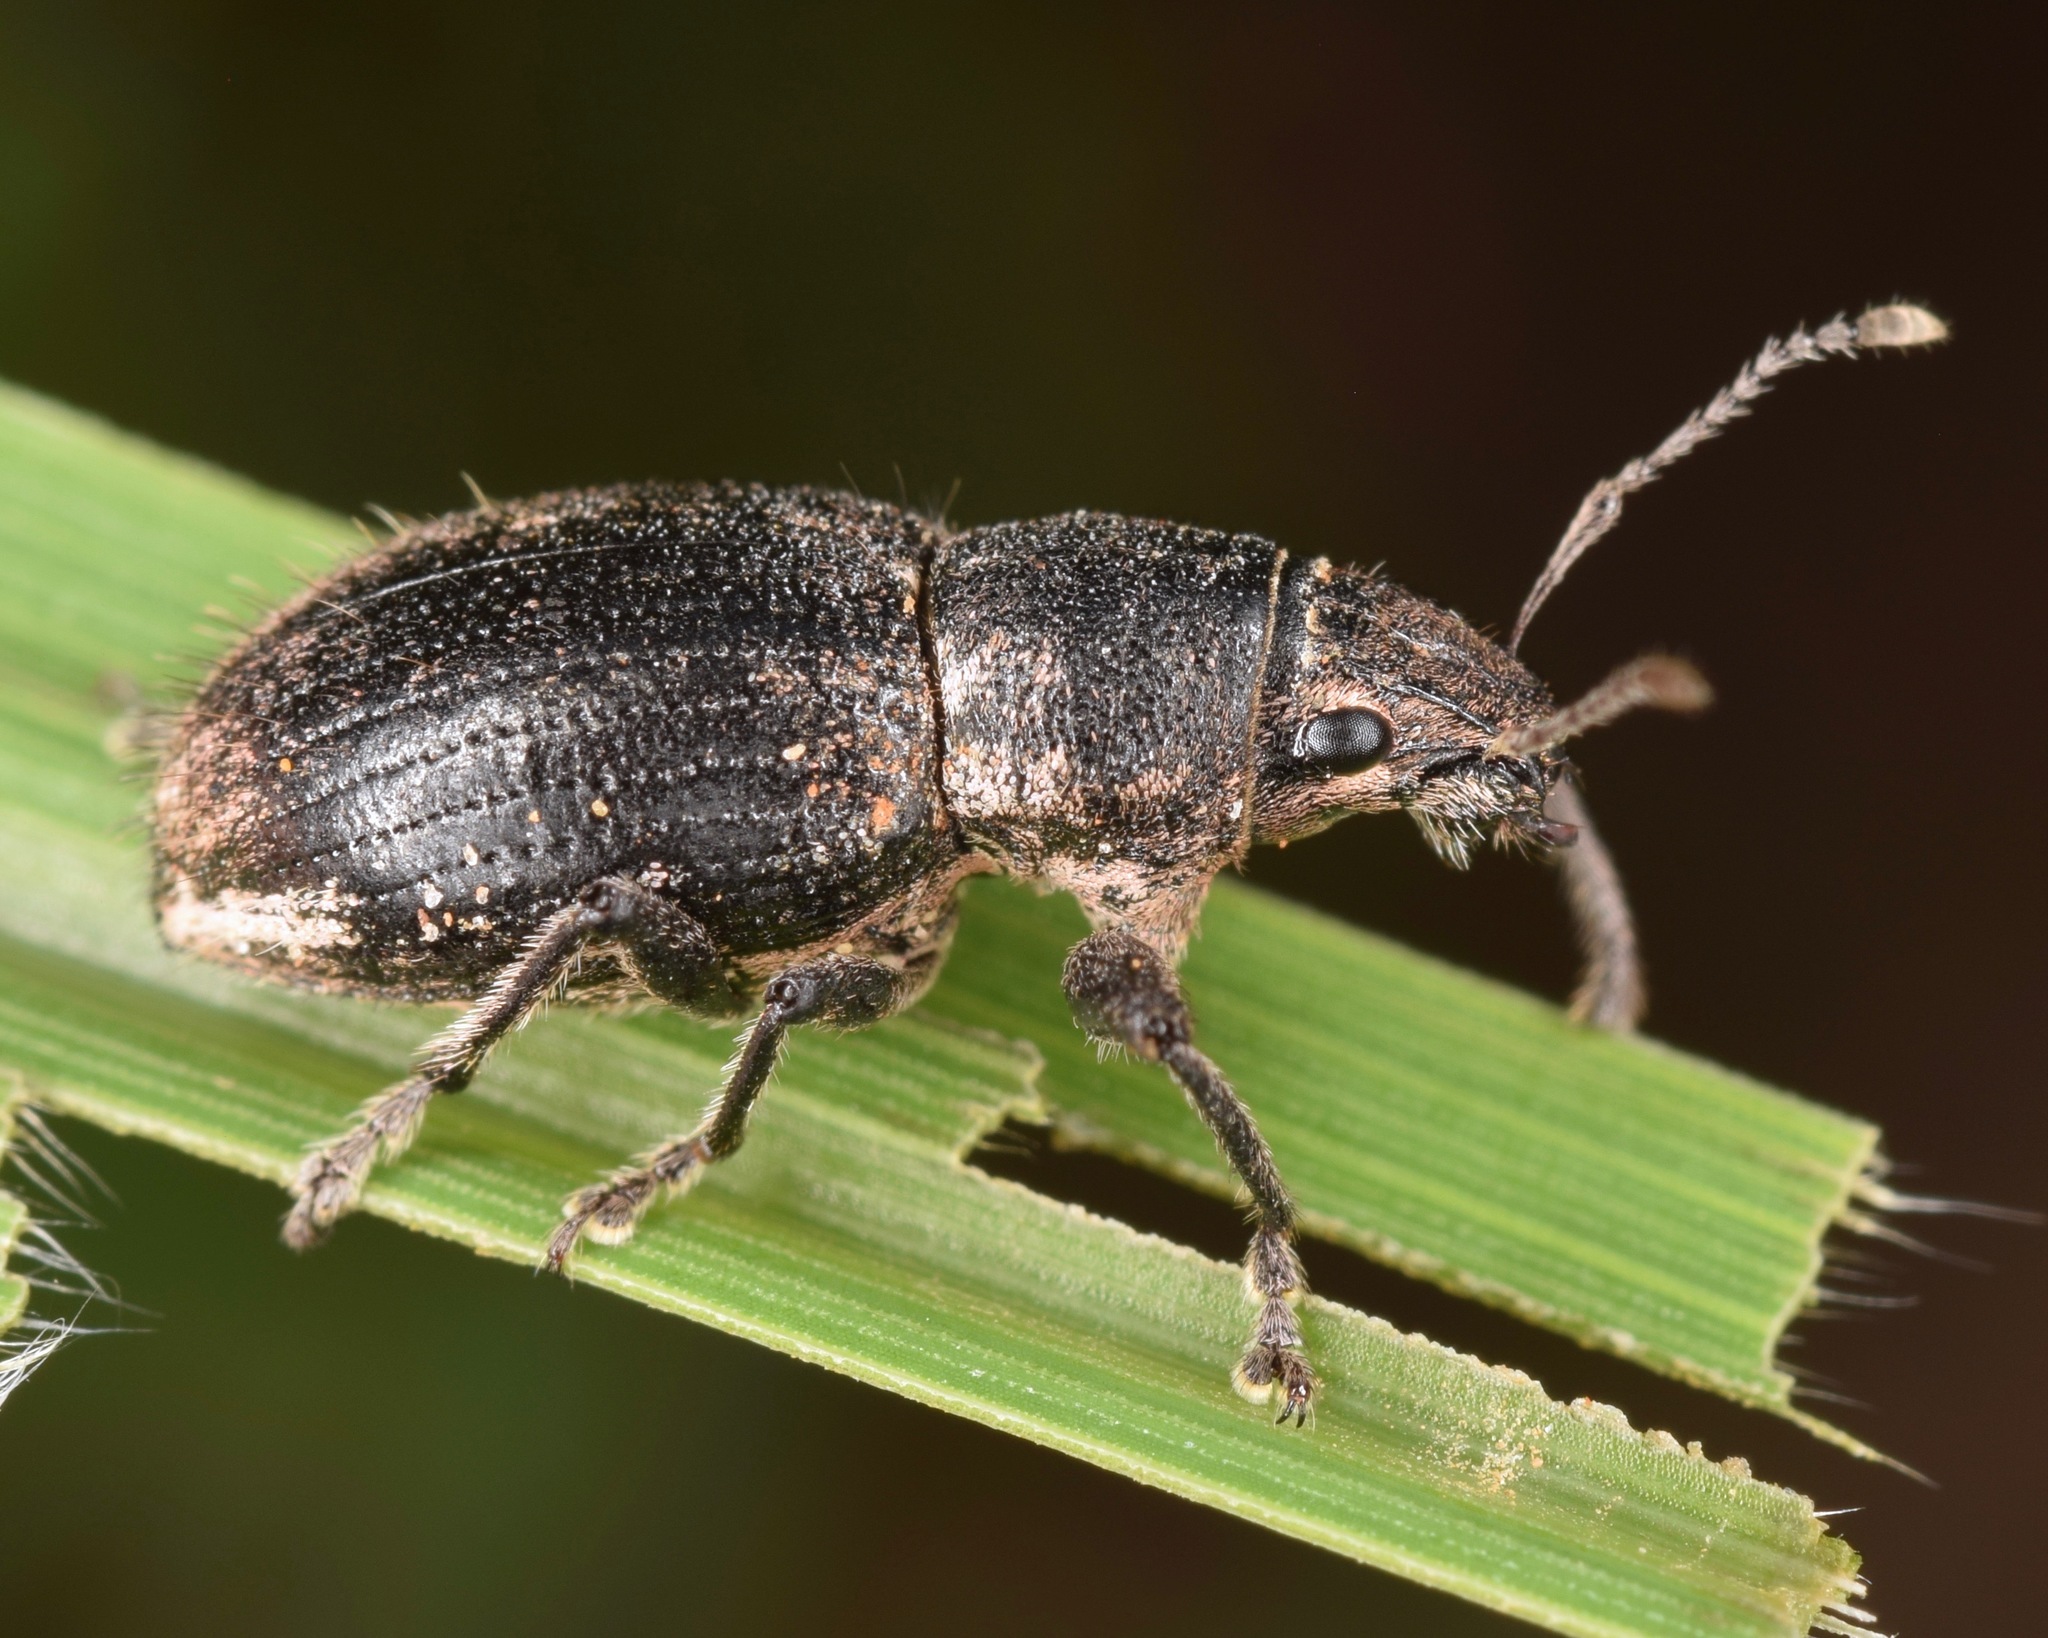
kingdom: Animalia
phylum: Arthropoda
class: Insecta
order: Coleoptera
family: Curculionidae
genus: Naupactus
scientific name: Naupactus leucoloma
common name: Whitefringed beetle
